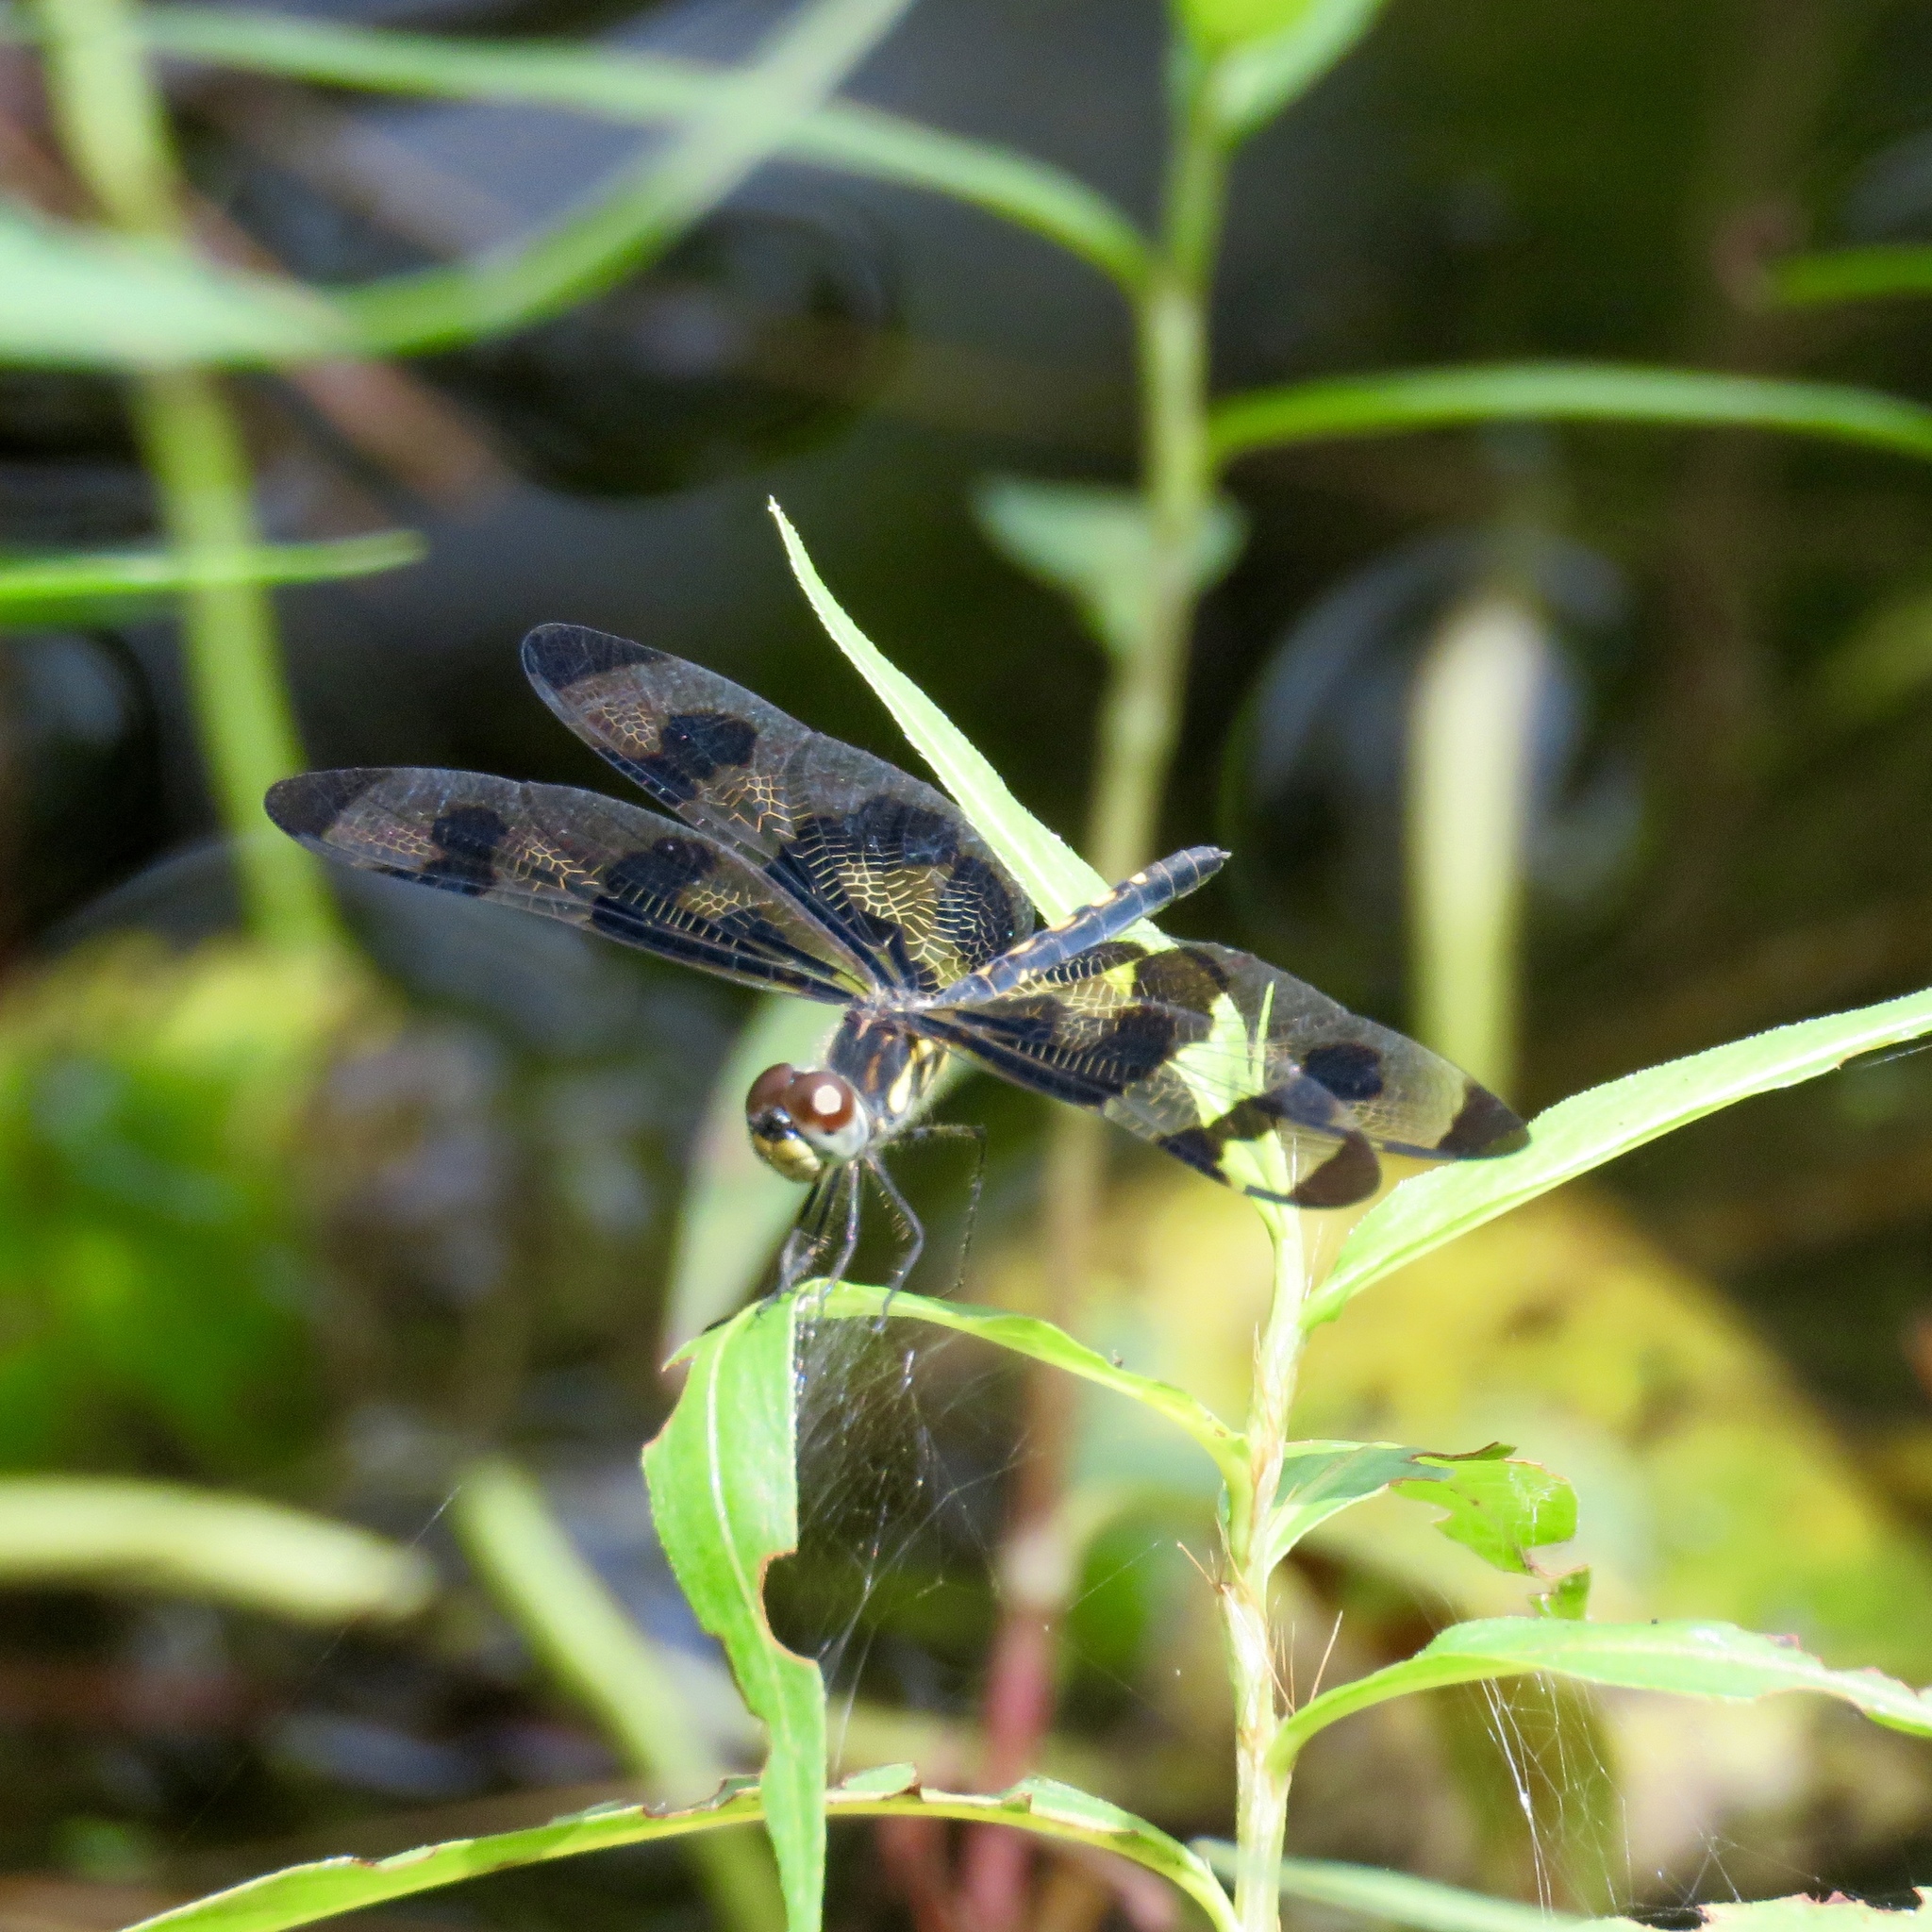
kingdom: Animalia
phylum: Arthropoda
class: Insecta
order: Odonata
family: Libellulidae
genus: Celithemis
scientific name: Celithemis fasciata
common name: Banded pennant
